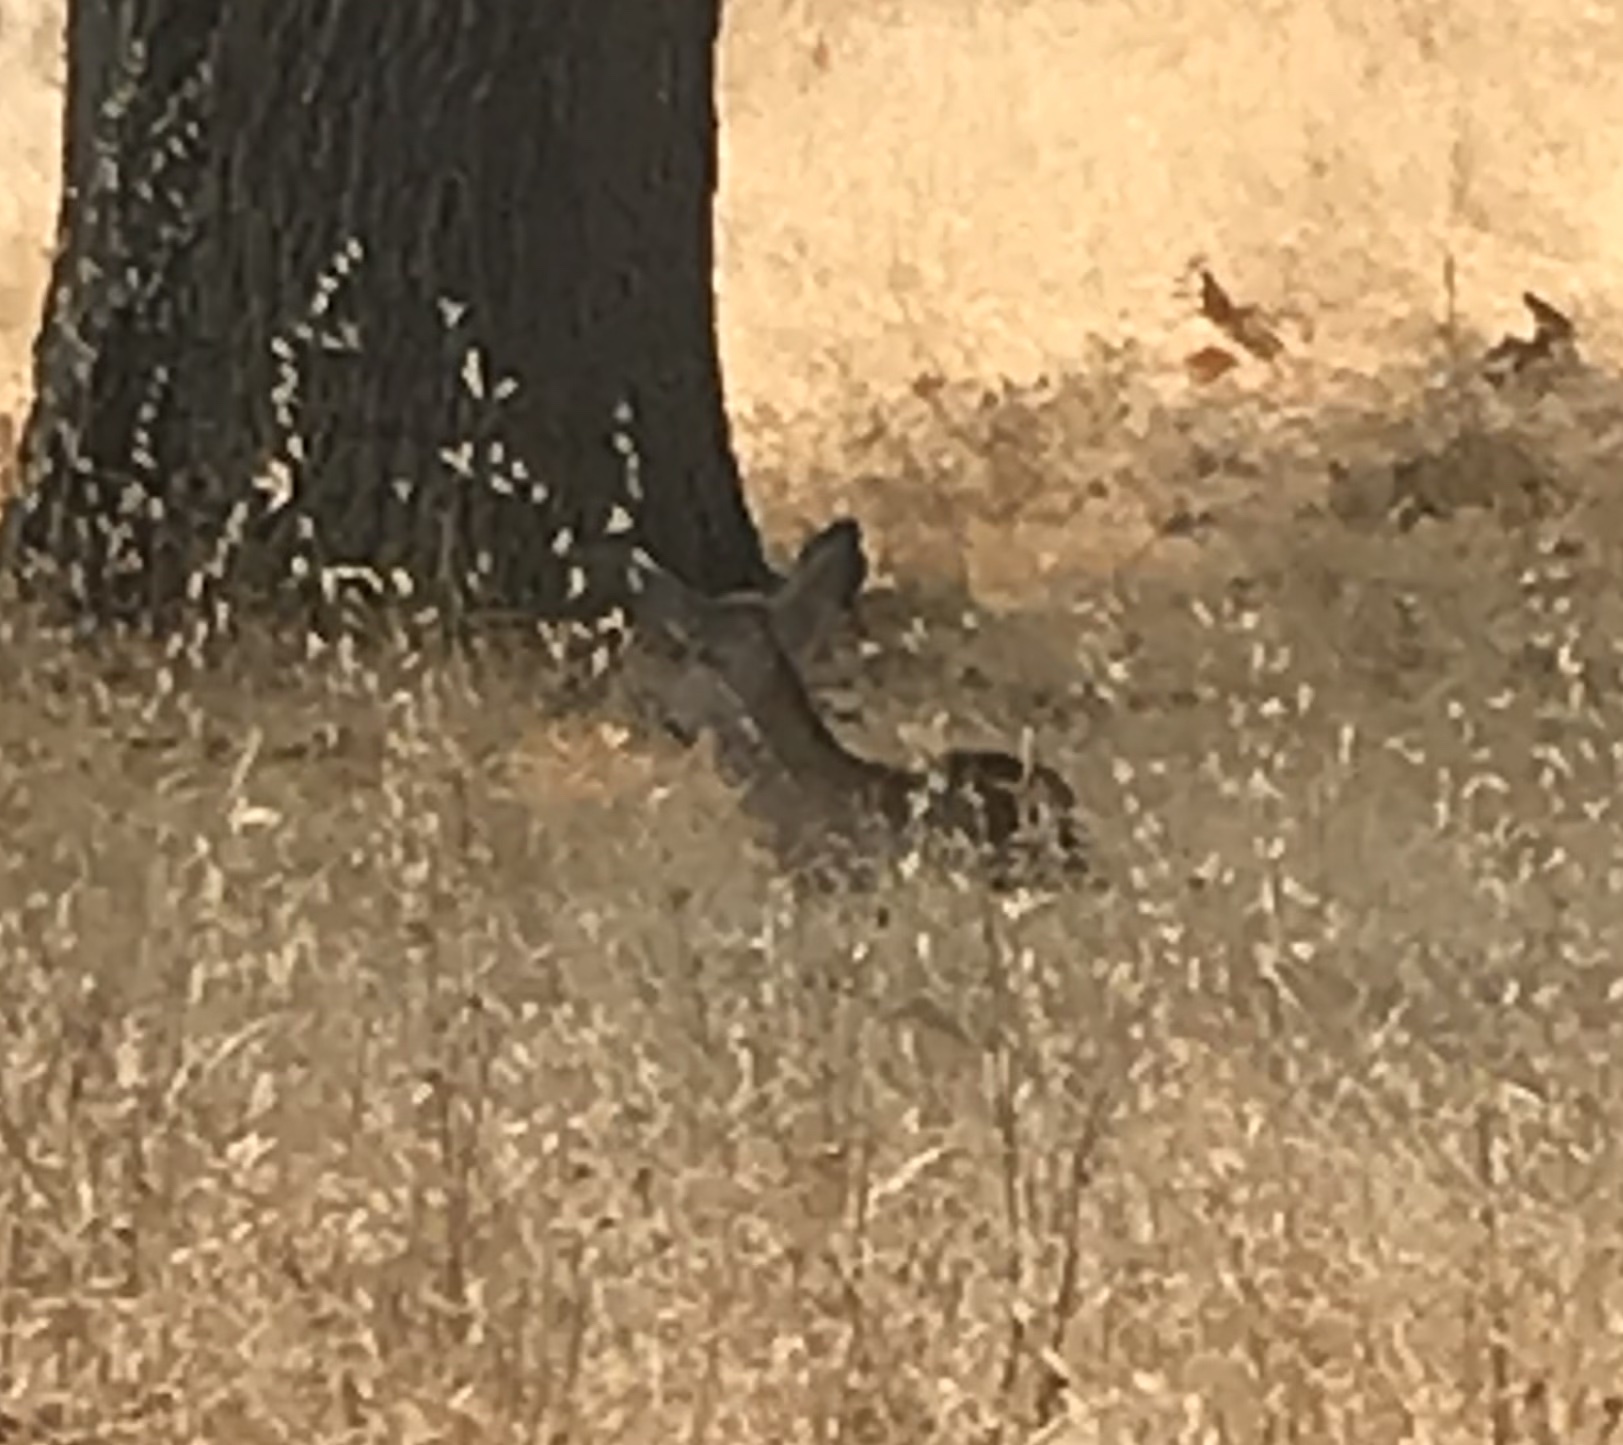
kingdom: Animalia
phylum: Chordata
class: Mammalia
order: Artiodactyla
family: Cervidae
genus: Odocoileus
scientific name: Odocoileus hemionus
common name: Mule deer
